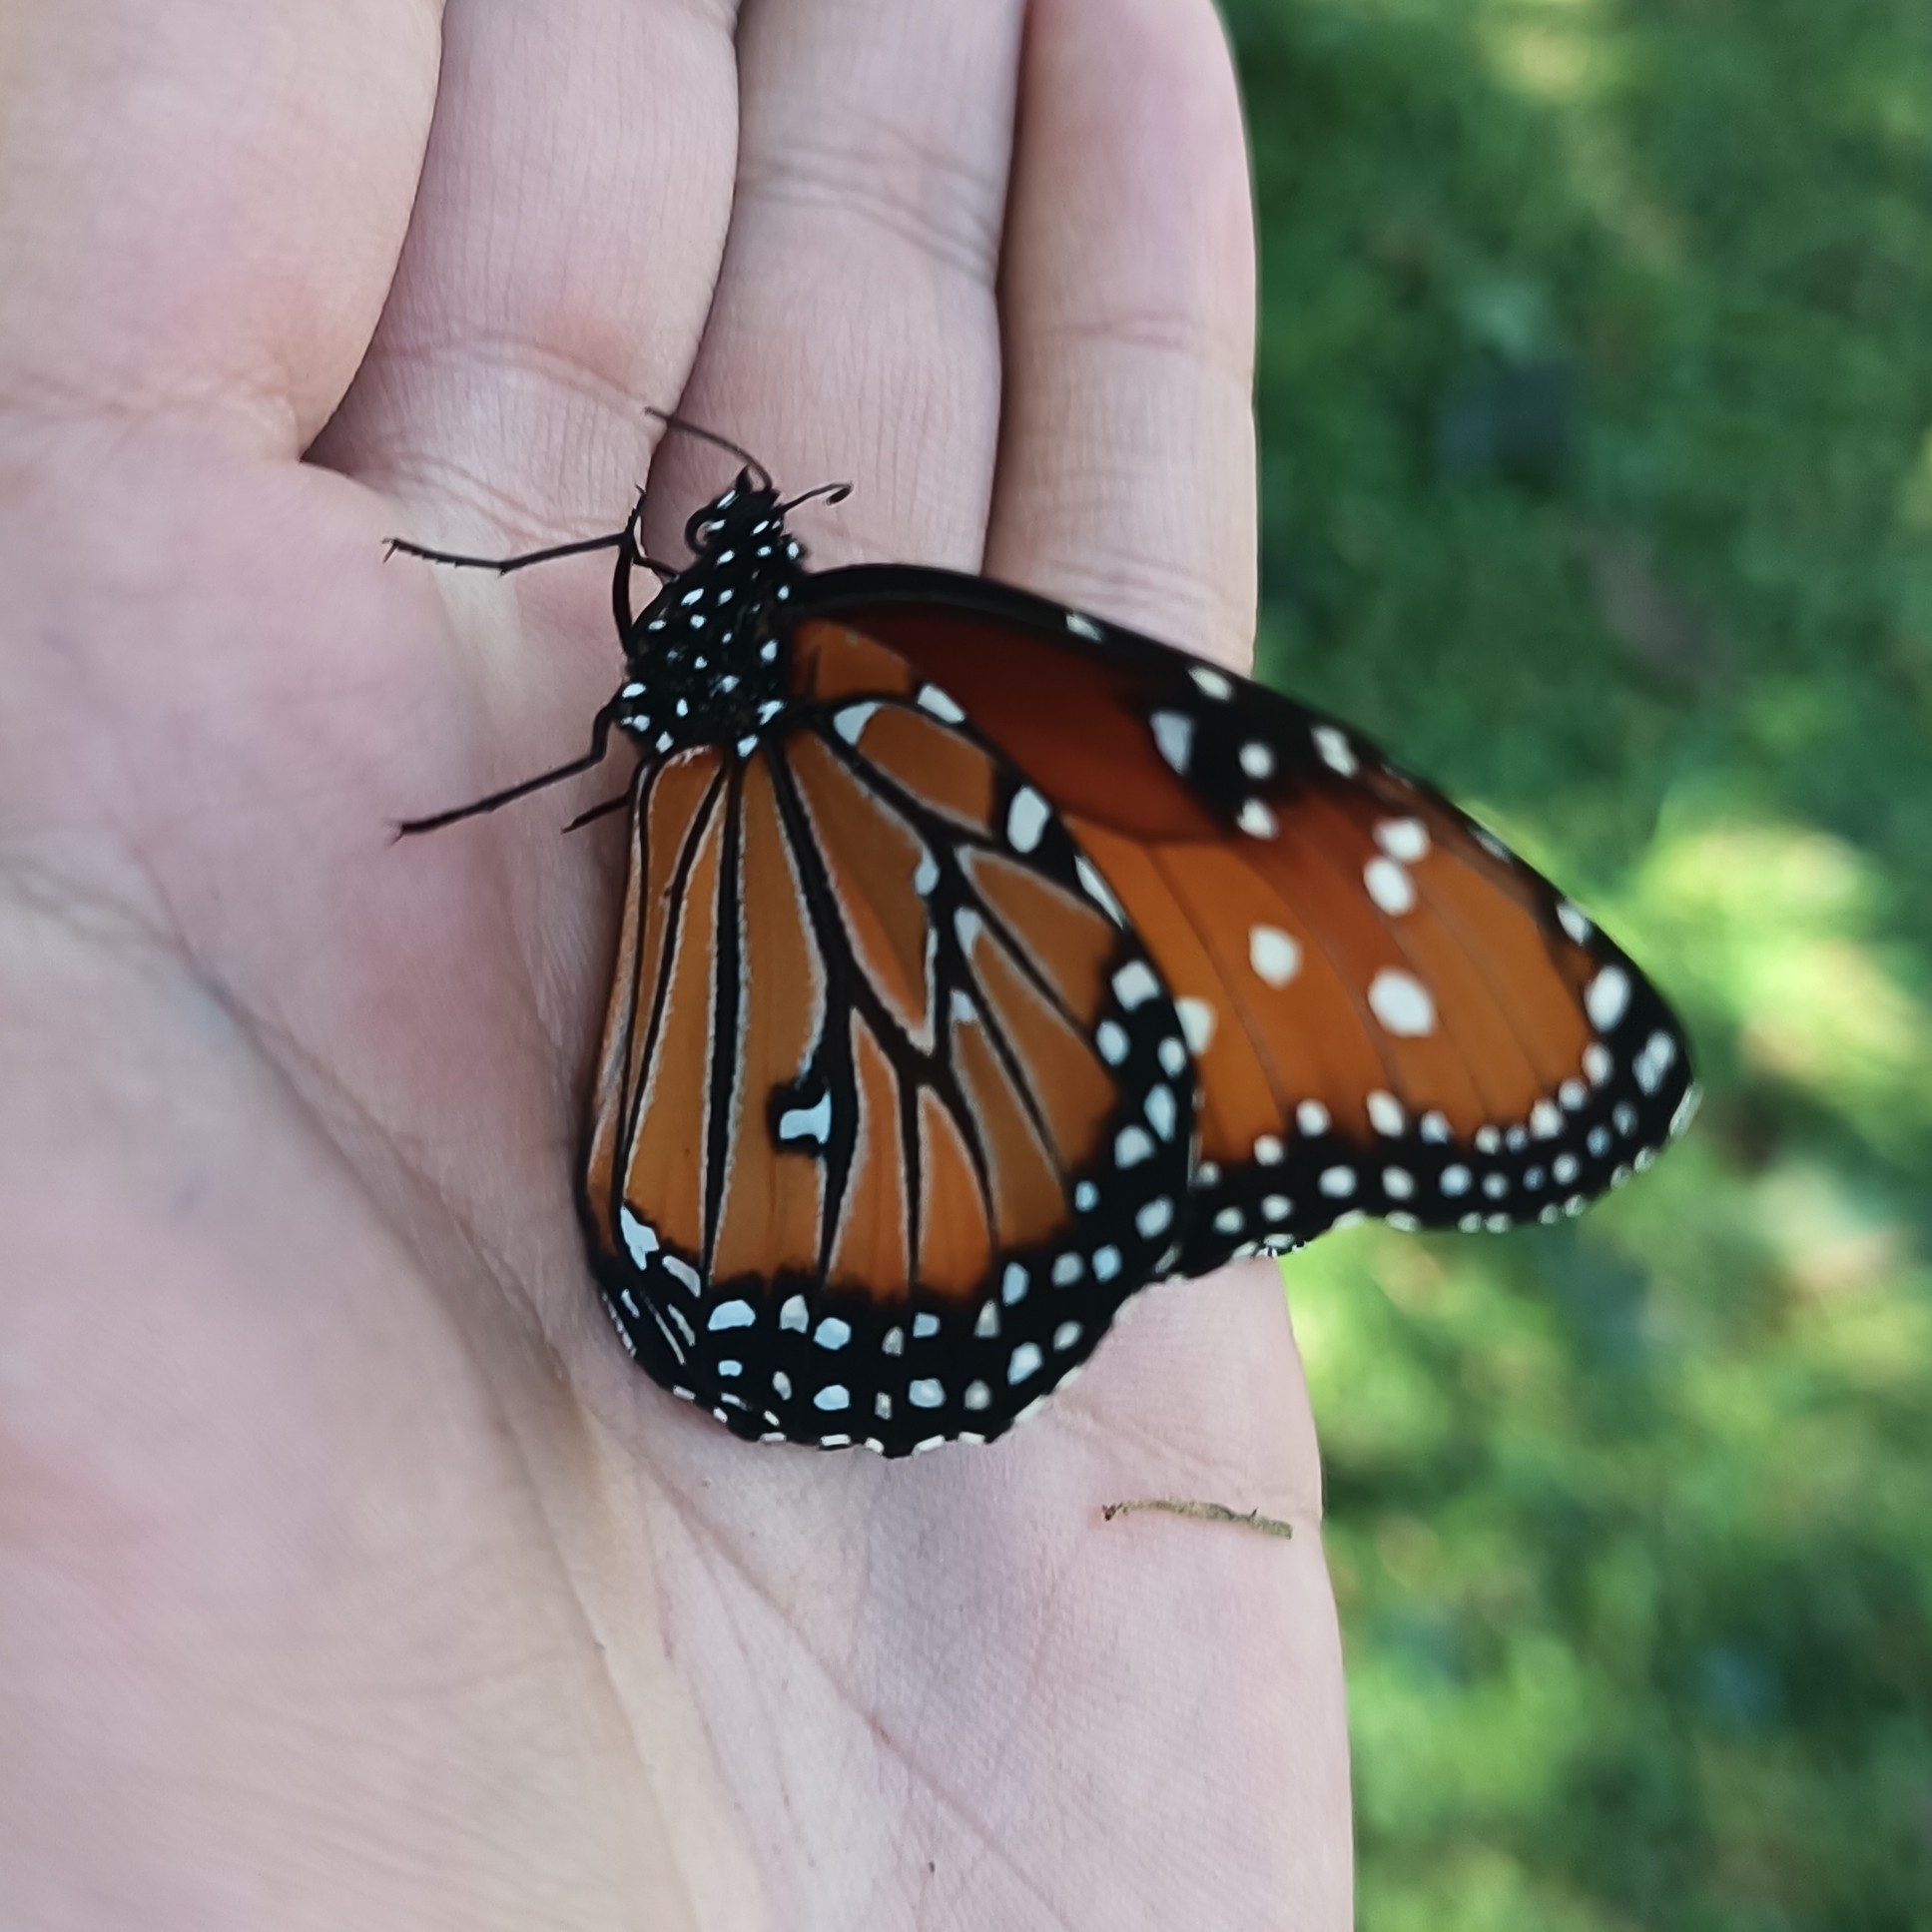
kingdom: Animalia
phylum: Arthropoda
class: Insecta
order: Lepidoptera
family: Nymphalidae
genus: Danaus
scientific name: Danaus gilippus
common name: Queen
